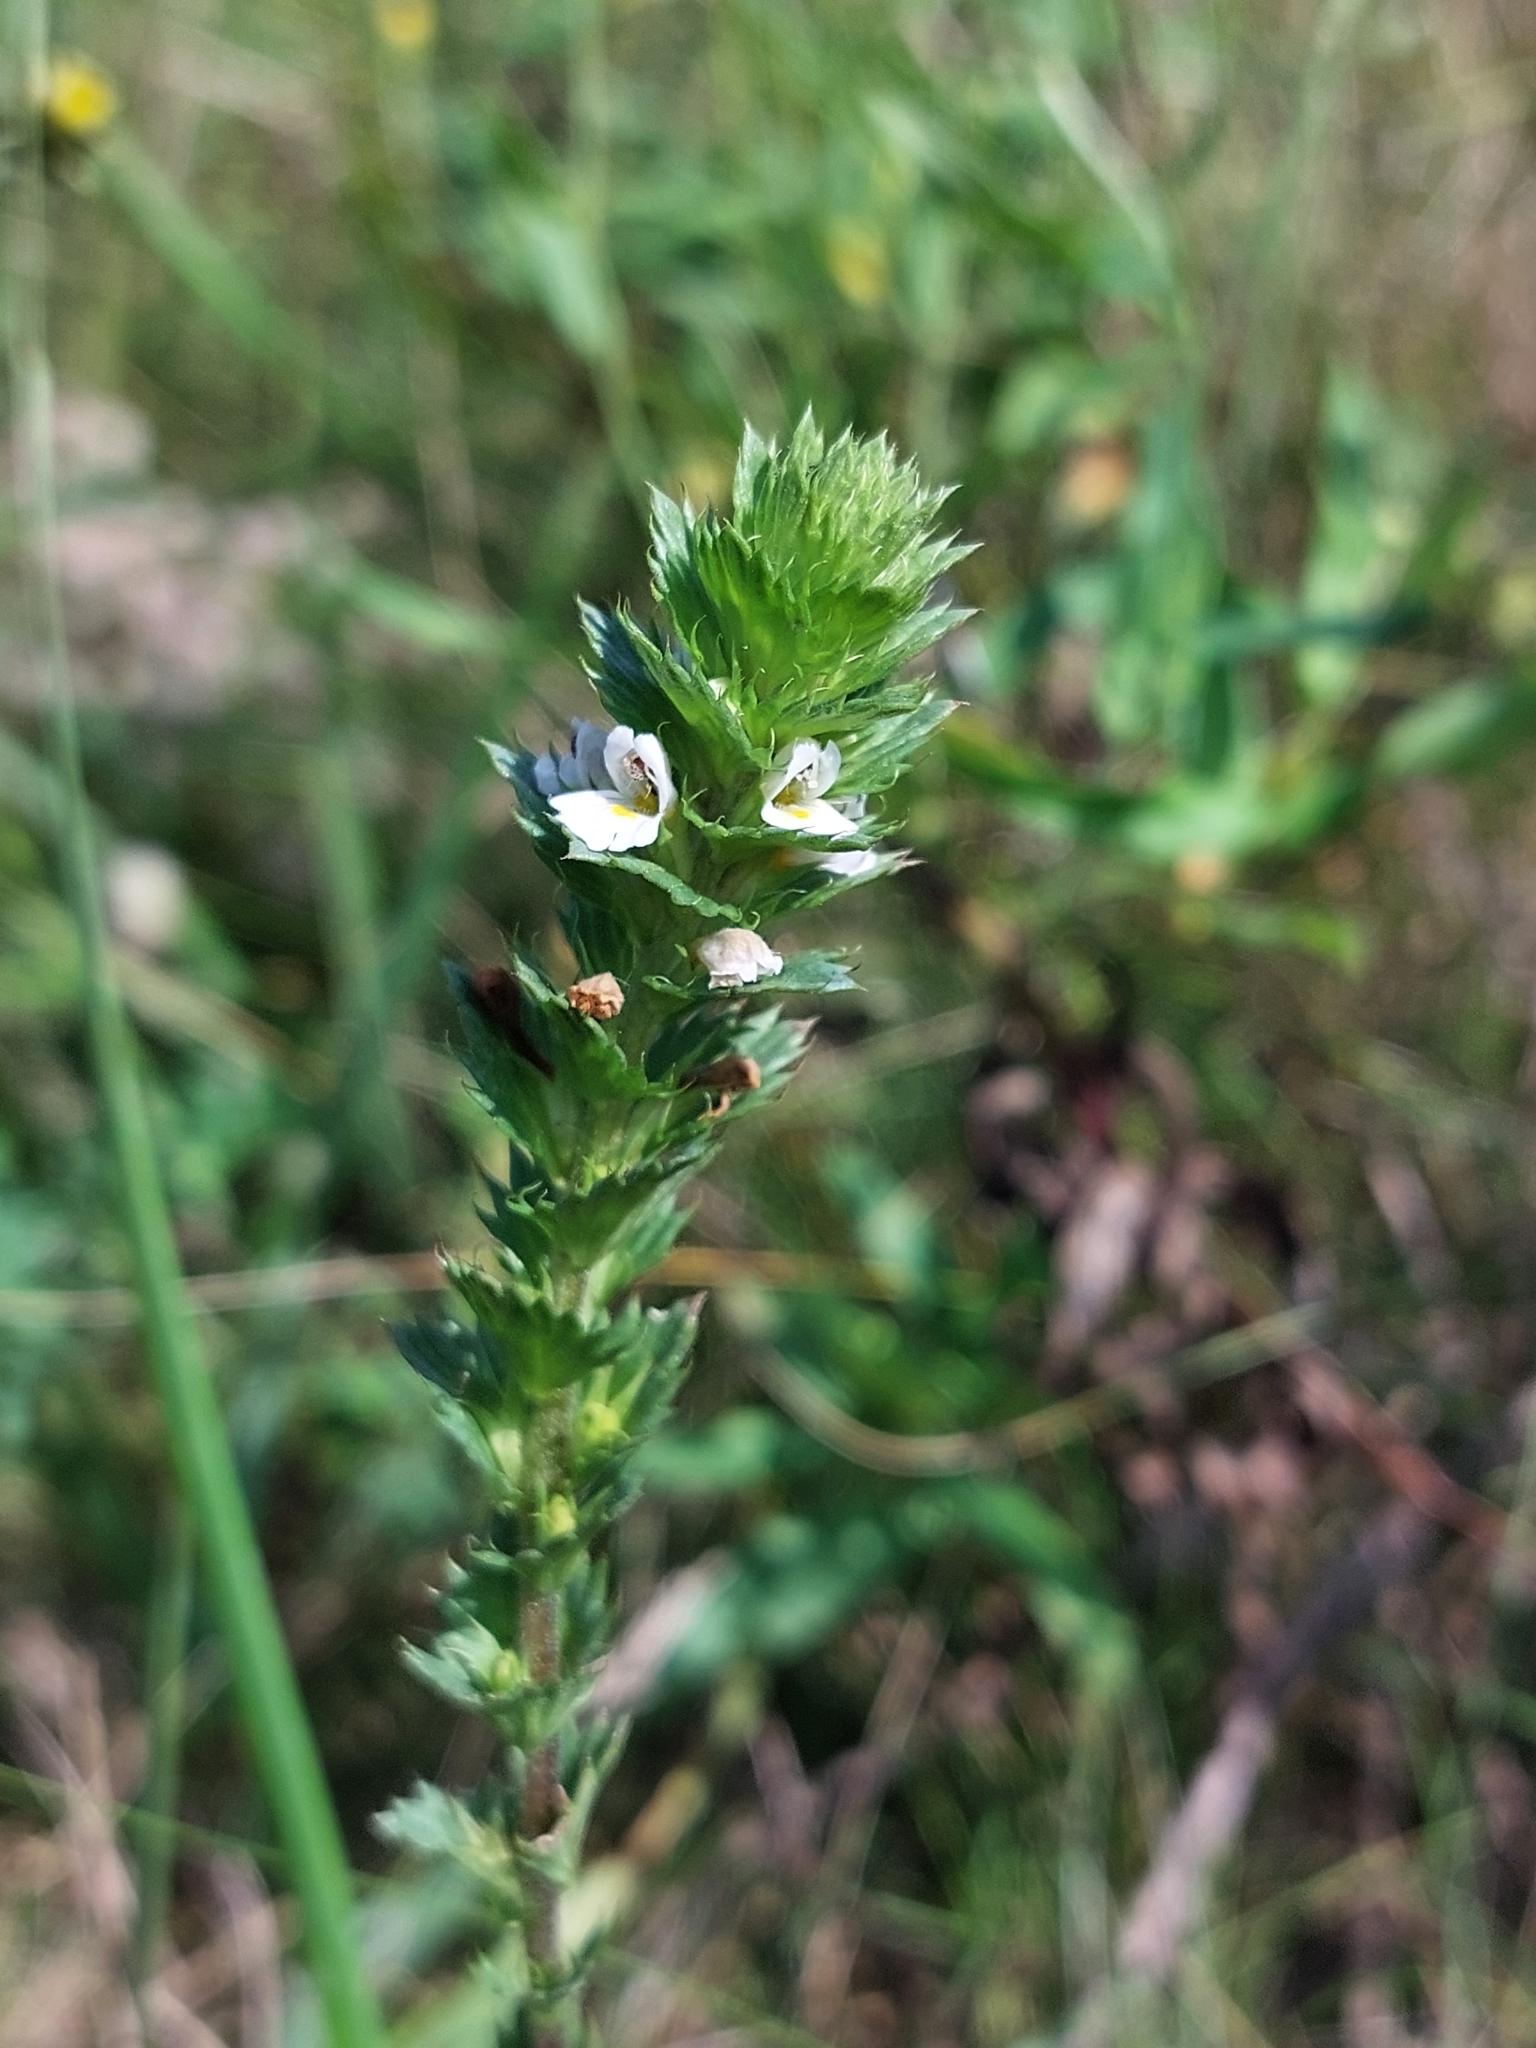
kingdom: Plantae
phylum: Tracheophyta
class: Magnoliopsida
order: Lamiales
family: Orobanchaceae
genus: Euphrasia
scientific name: Euphrasia stricta
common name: Drug eyebright
